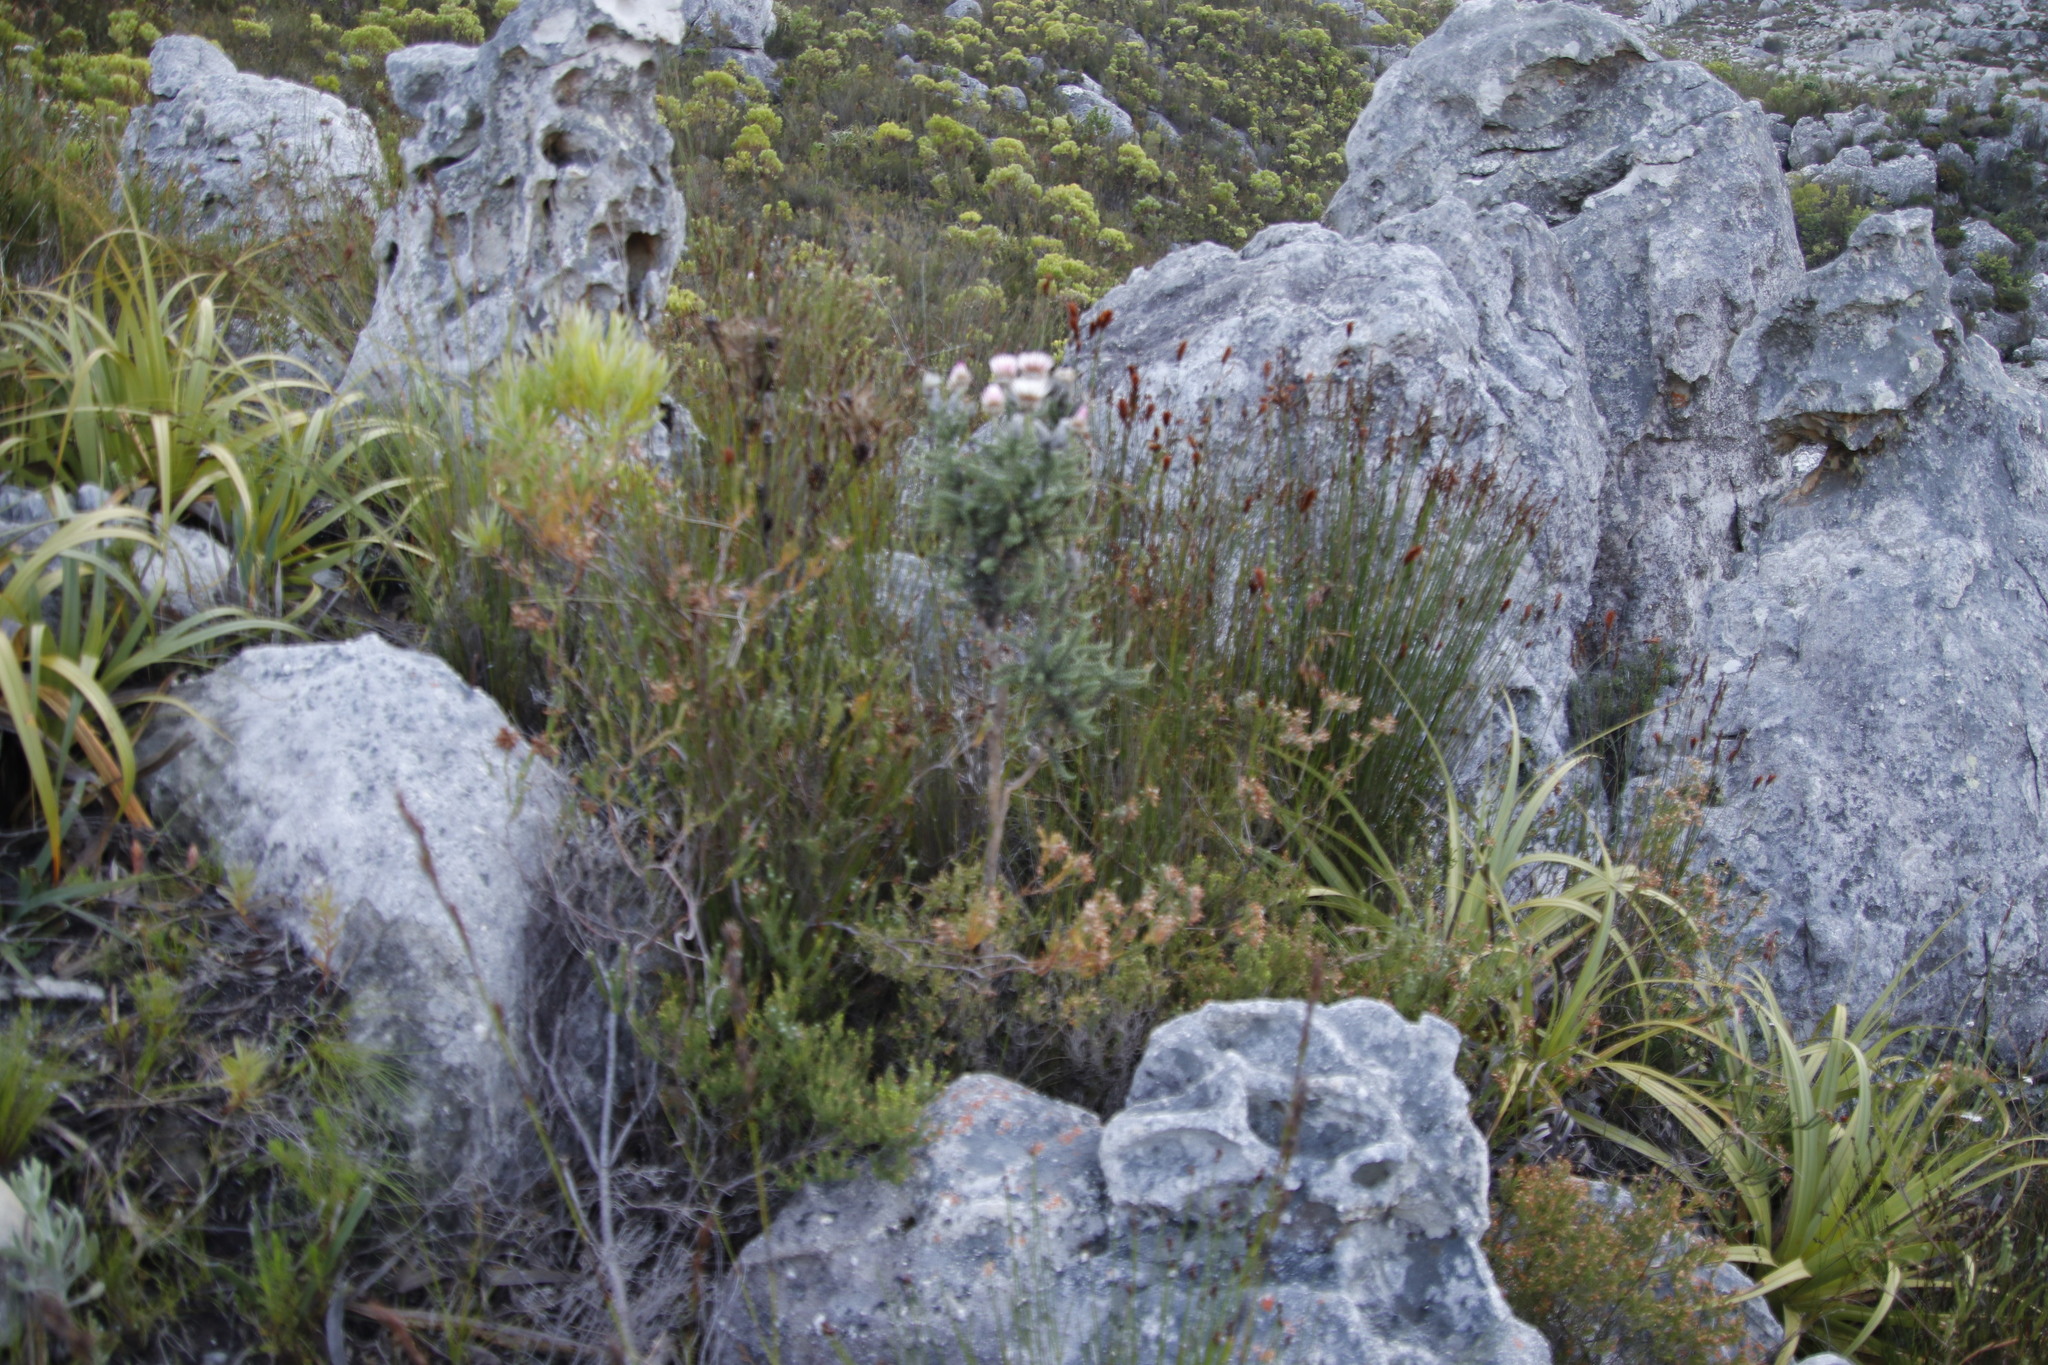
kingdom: Plantae
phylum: Tracheophyta
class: Magnoliopsida
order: Asterales
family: Asteraceae
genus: Phaenocoma
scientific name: Phaenocoma prolifera
